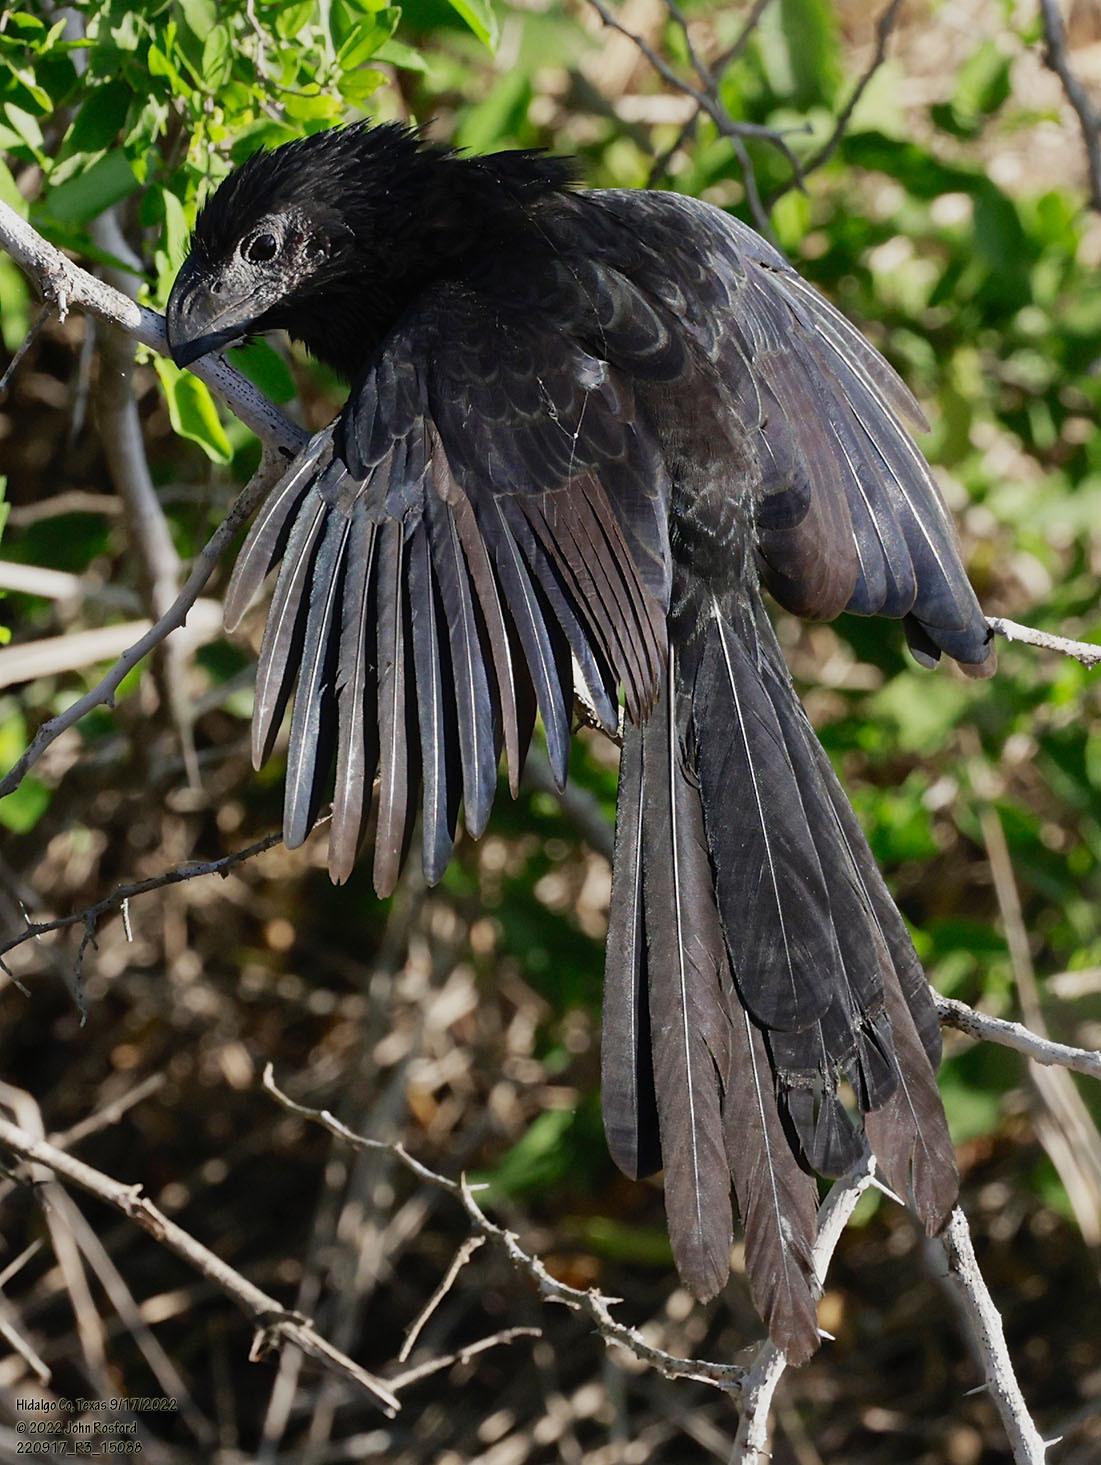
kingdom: Animalia
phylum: Chordata
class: Aves
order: Cuculiformes
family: Cuculidae
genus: Crotophaga
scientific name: Crotophaga sulcirostris
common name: Groove-billed ani
